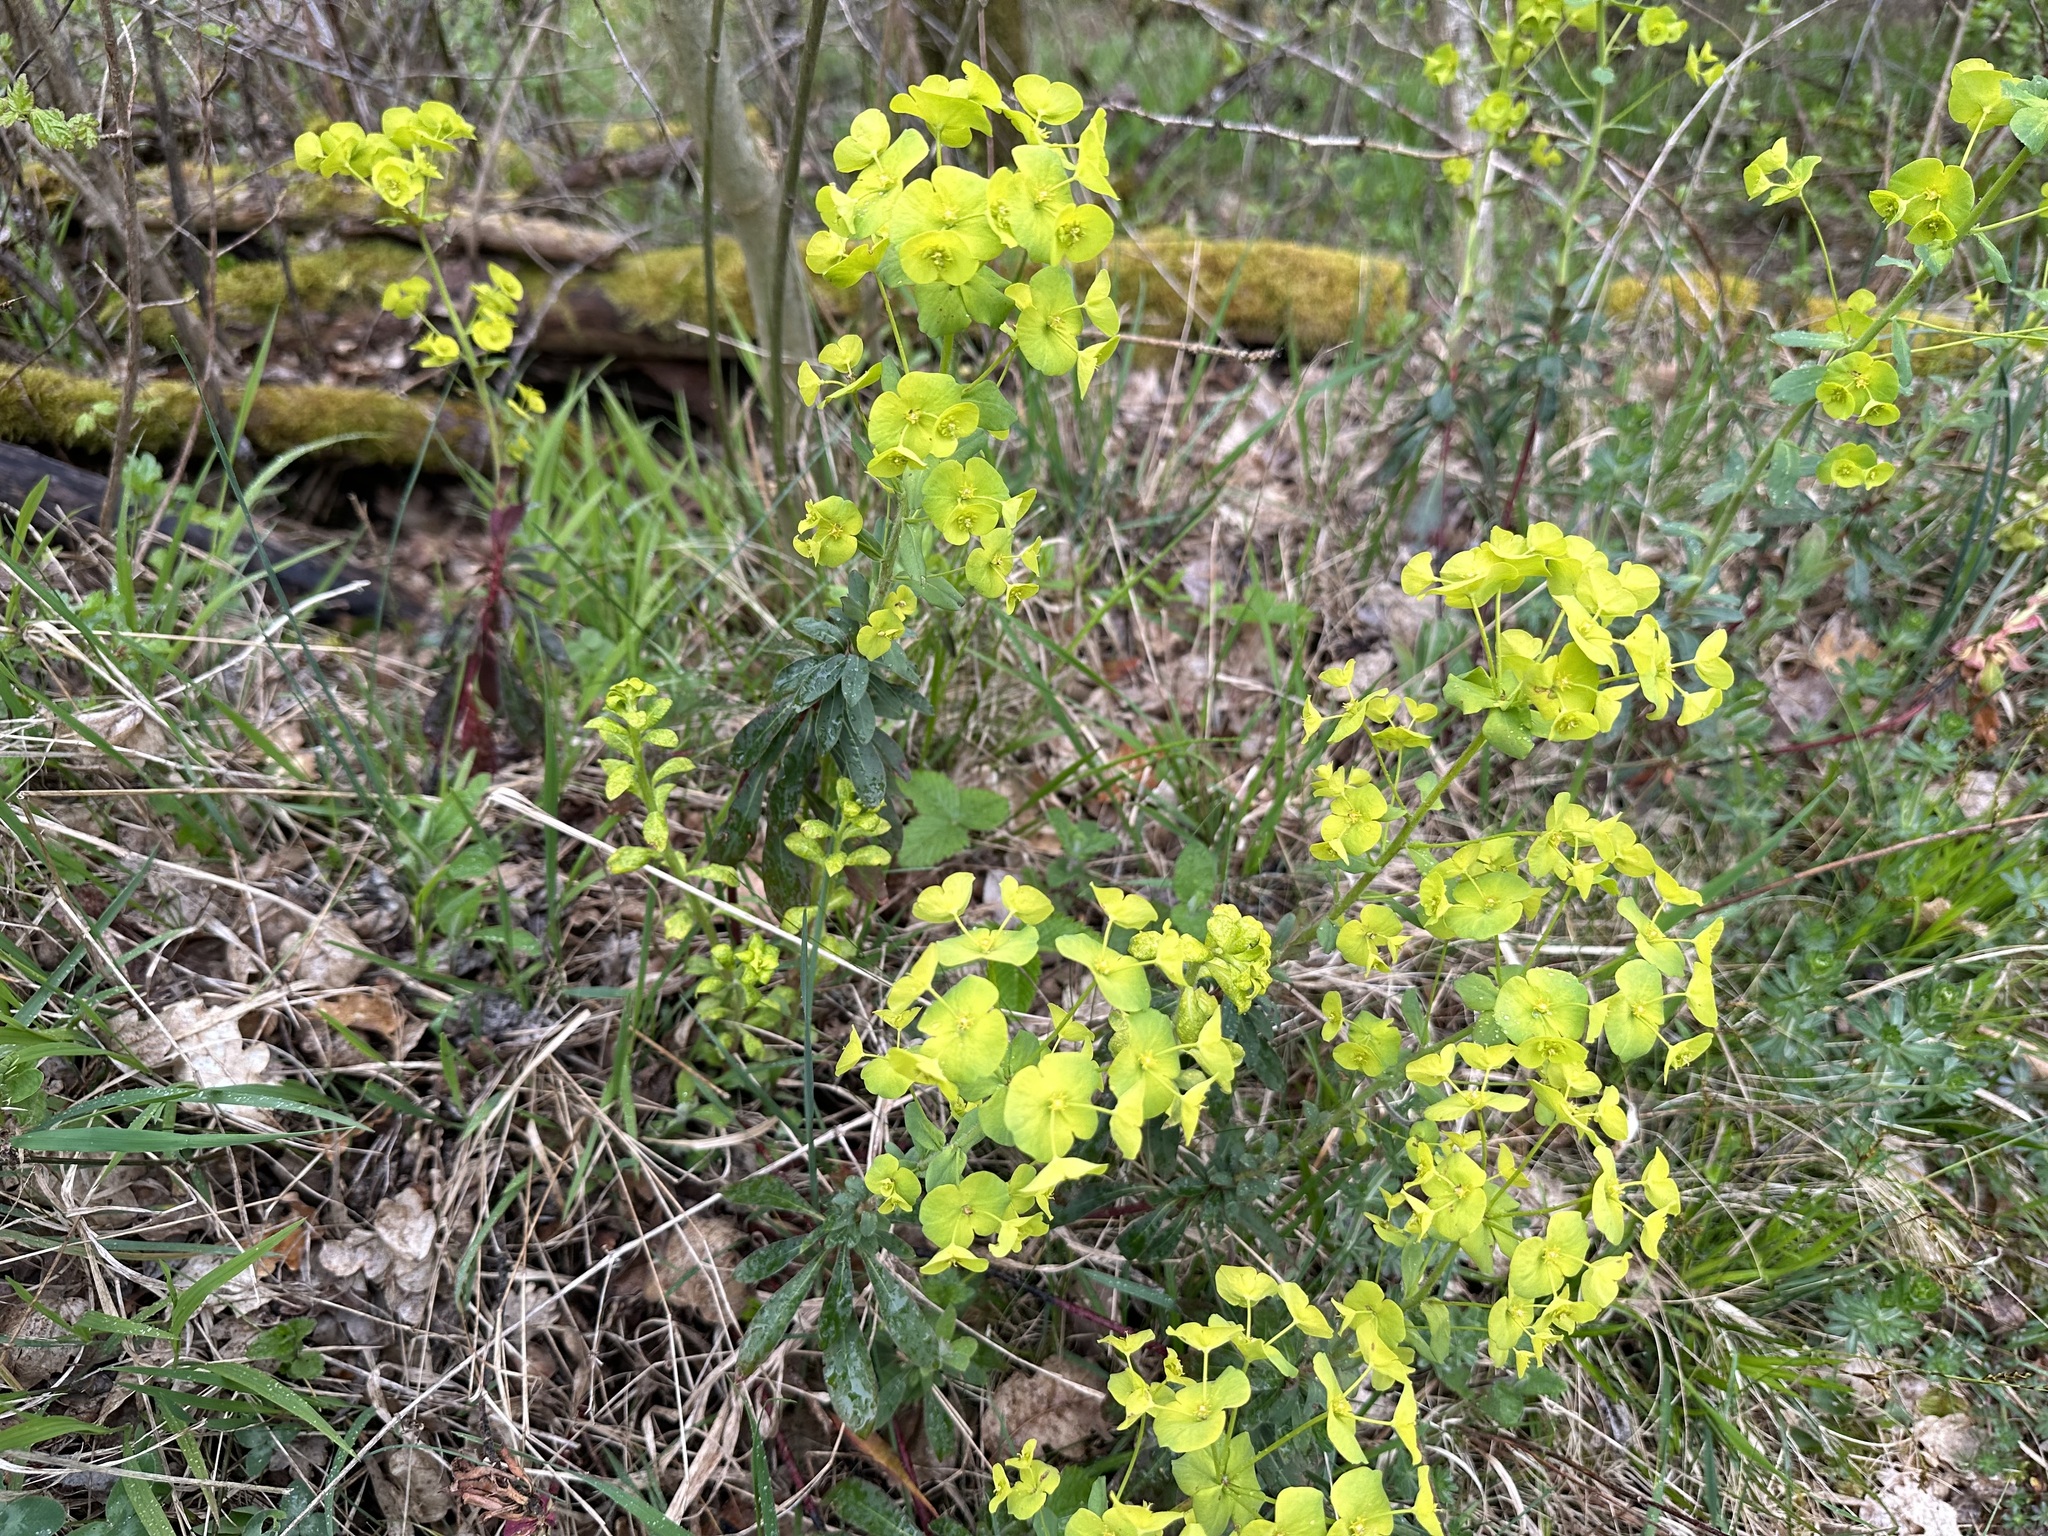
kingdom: Plantae
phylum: Tracheophyta
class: Magnoliopsida
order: Malpighiales
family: Euphorbiaceae
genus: Euphorbia
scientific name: Euphorbia amygdaloides
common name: Wood spurge
